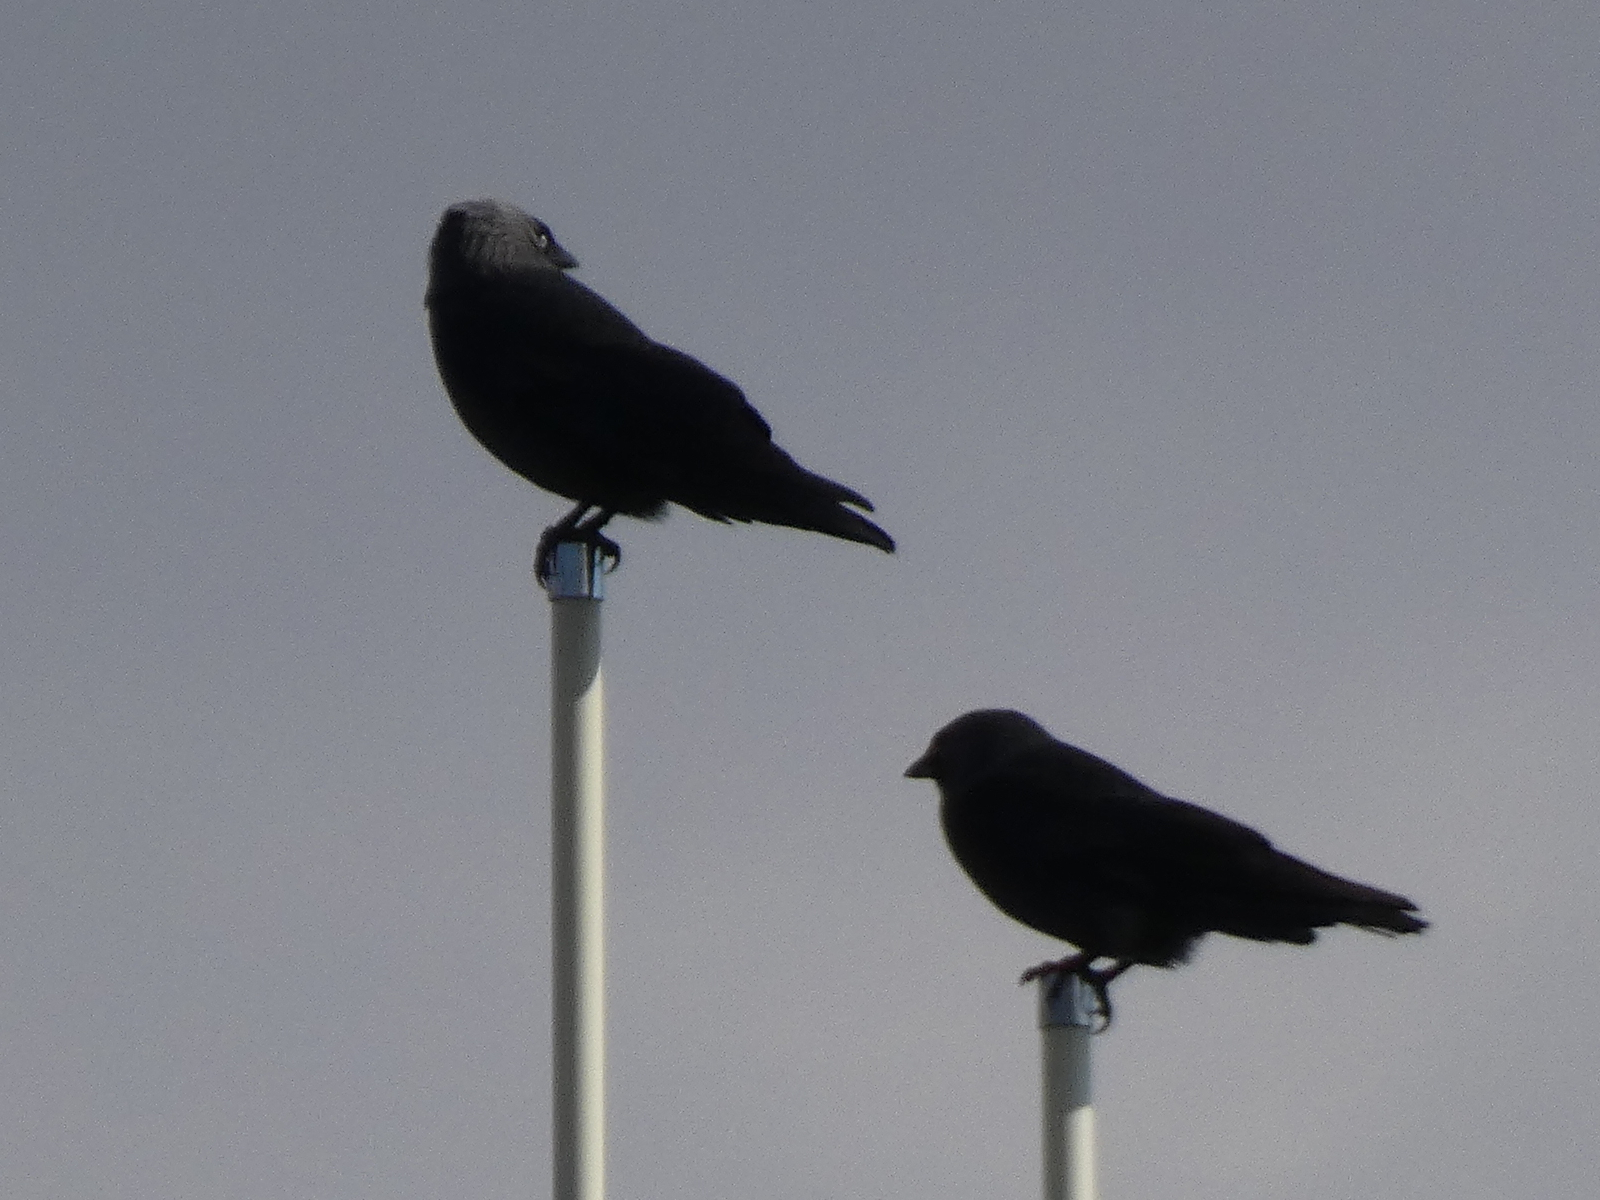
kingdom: Animalia
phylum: Chordata
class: Aves
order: Passeriformes
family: Corvidae
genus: Coloeus
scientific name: Coloeus monedula
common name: Western jackdaw
